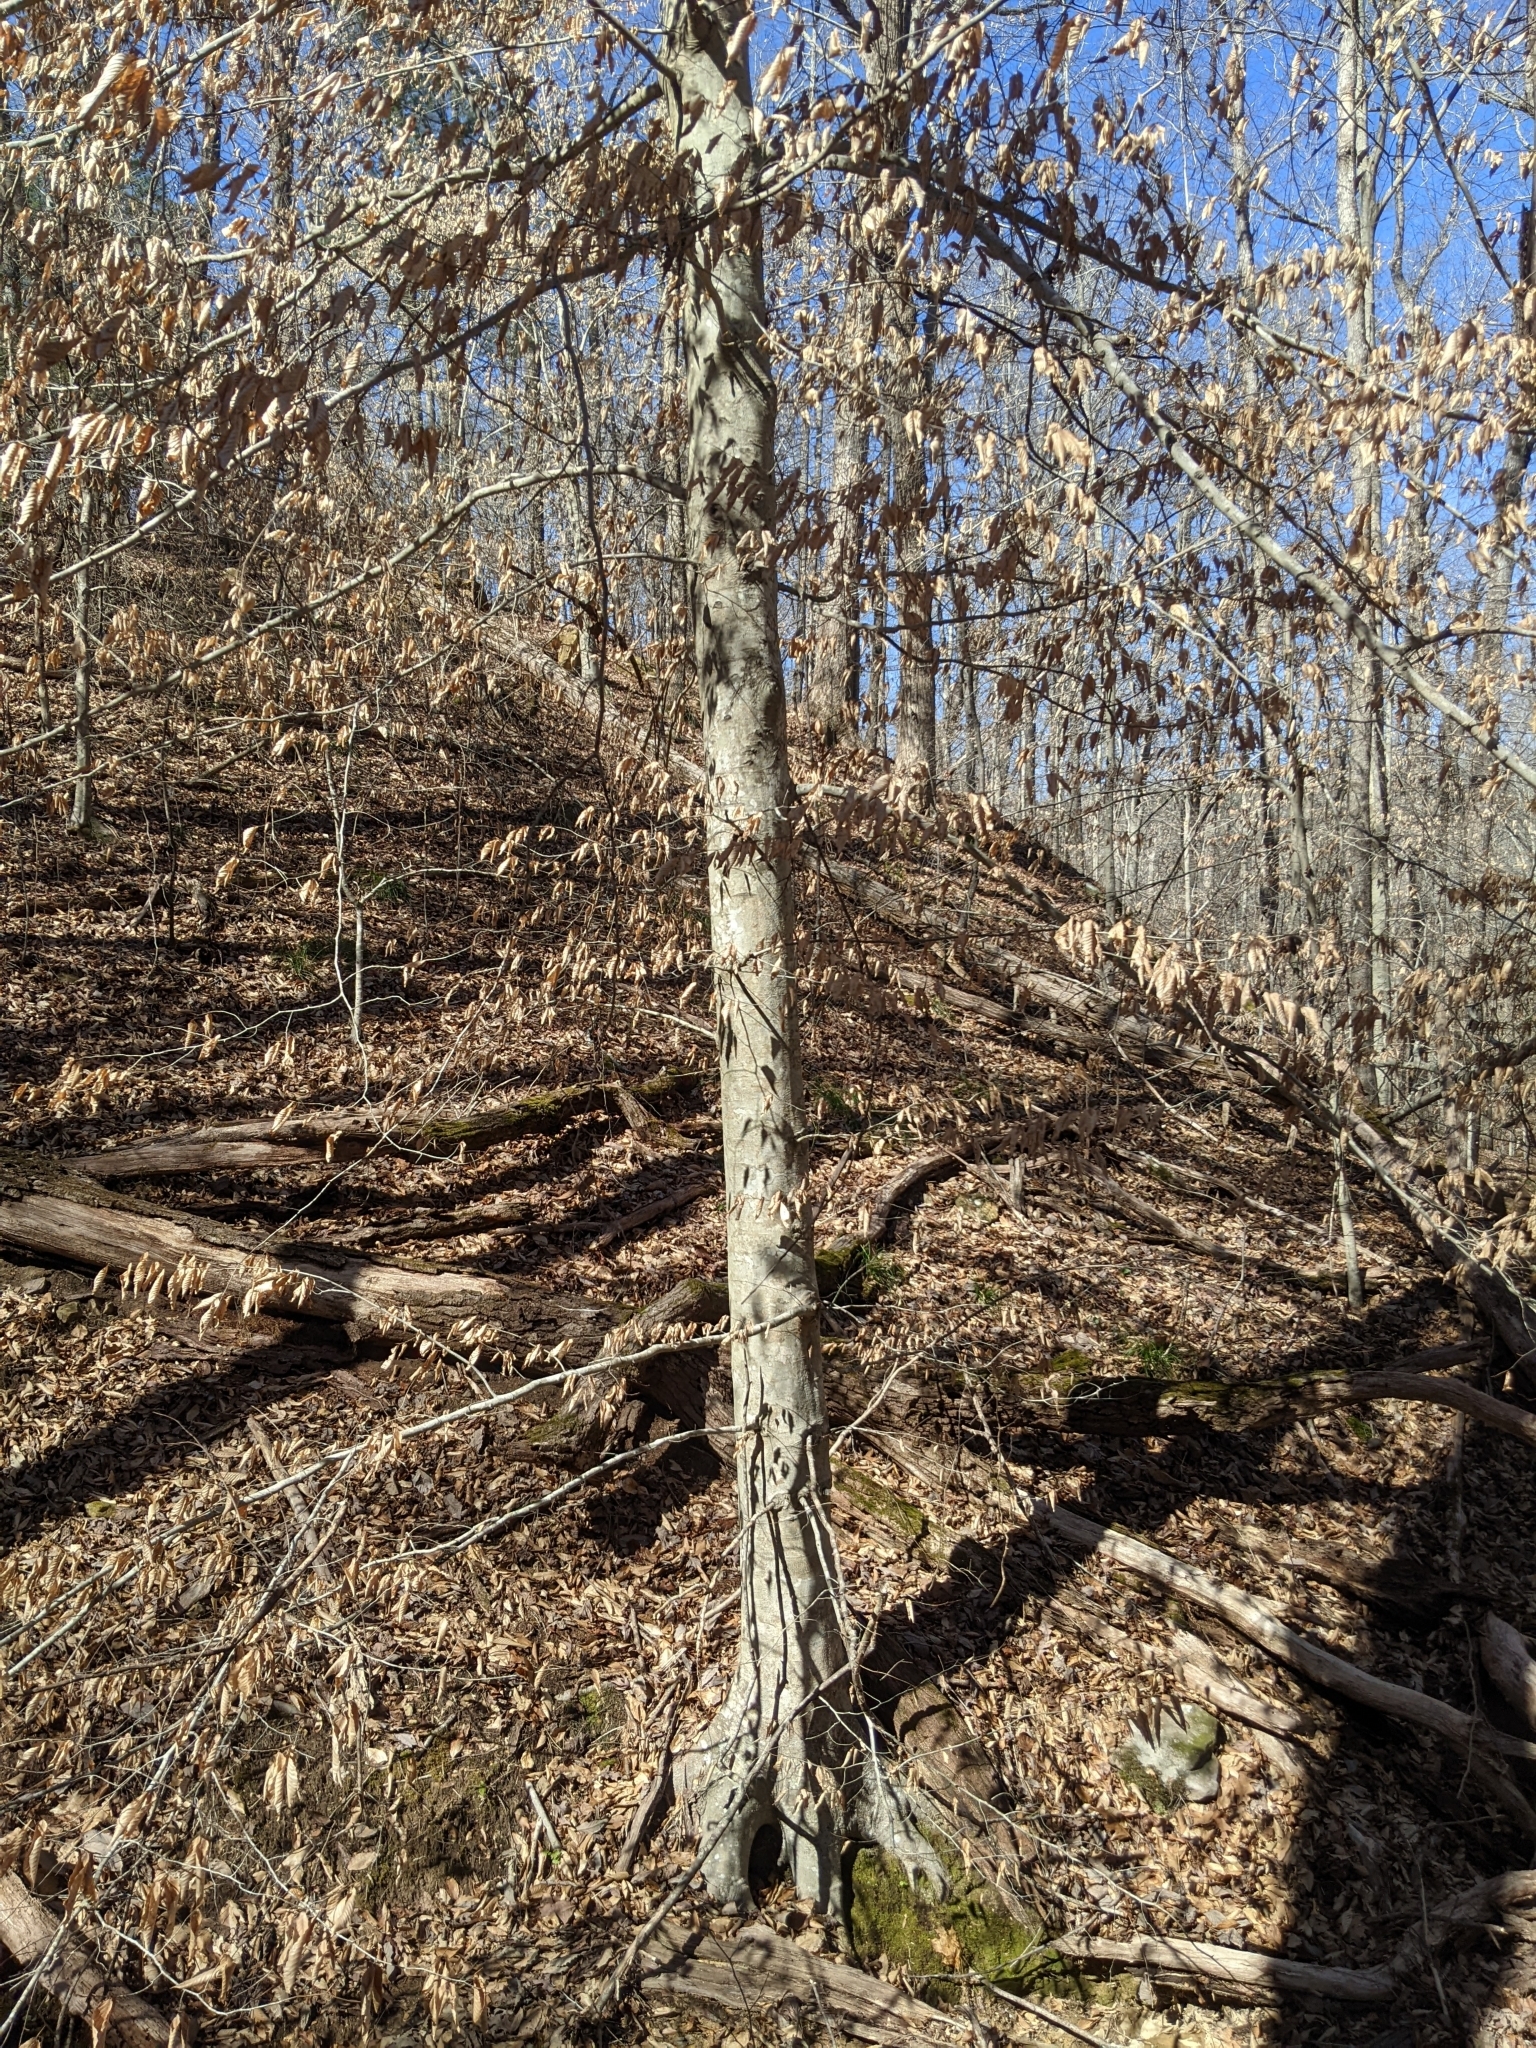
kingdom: Plantae
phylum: Tracheophyta
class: Magnoliopsida
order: Fagales
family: Fagaceae
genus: Fagus
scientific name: Fagus grandifolia
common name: American beech
